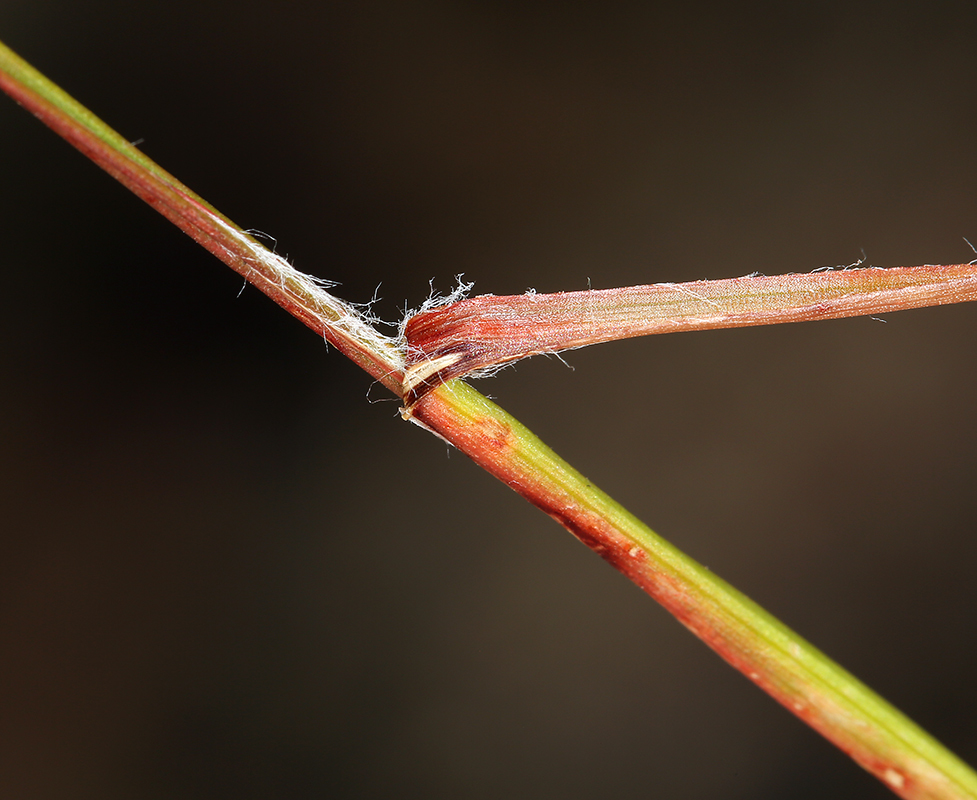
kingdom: Plantae
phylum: Tracheophyta
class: Liliopsida
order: Poales
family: Juncaceae
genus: Luzula
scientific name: Luzula spicata
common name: Spiked wood-rush
